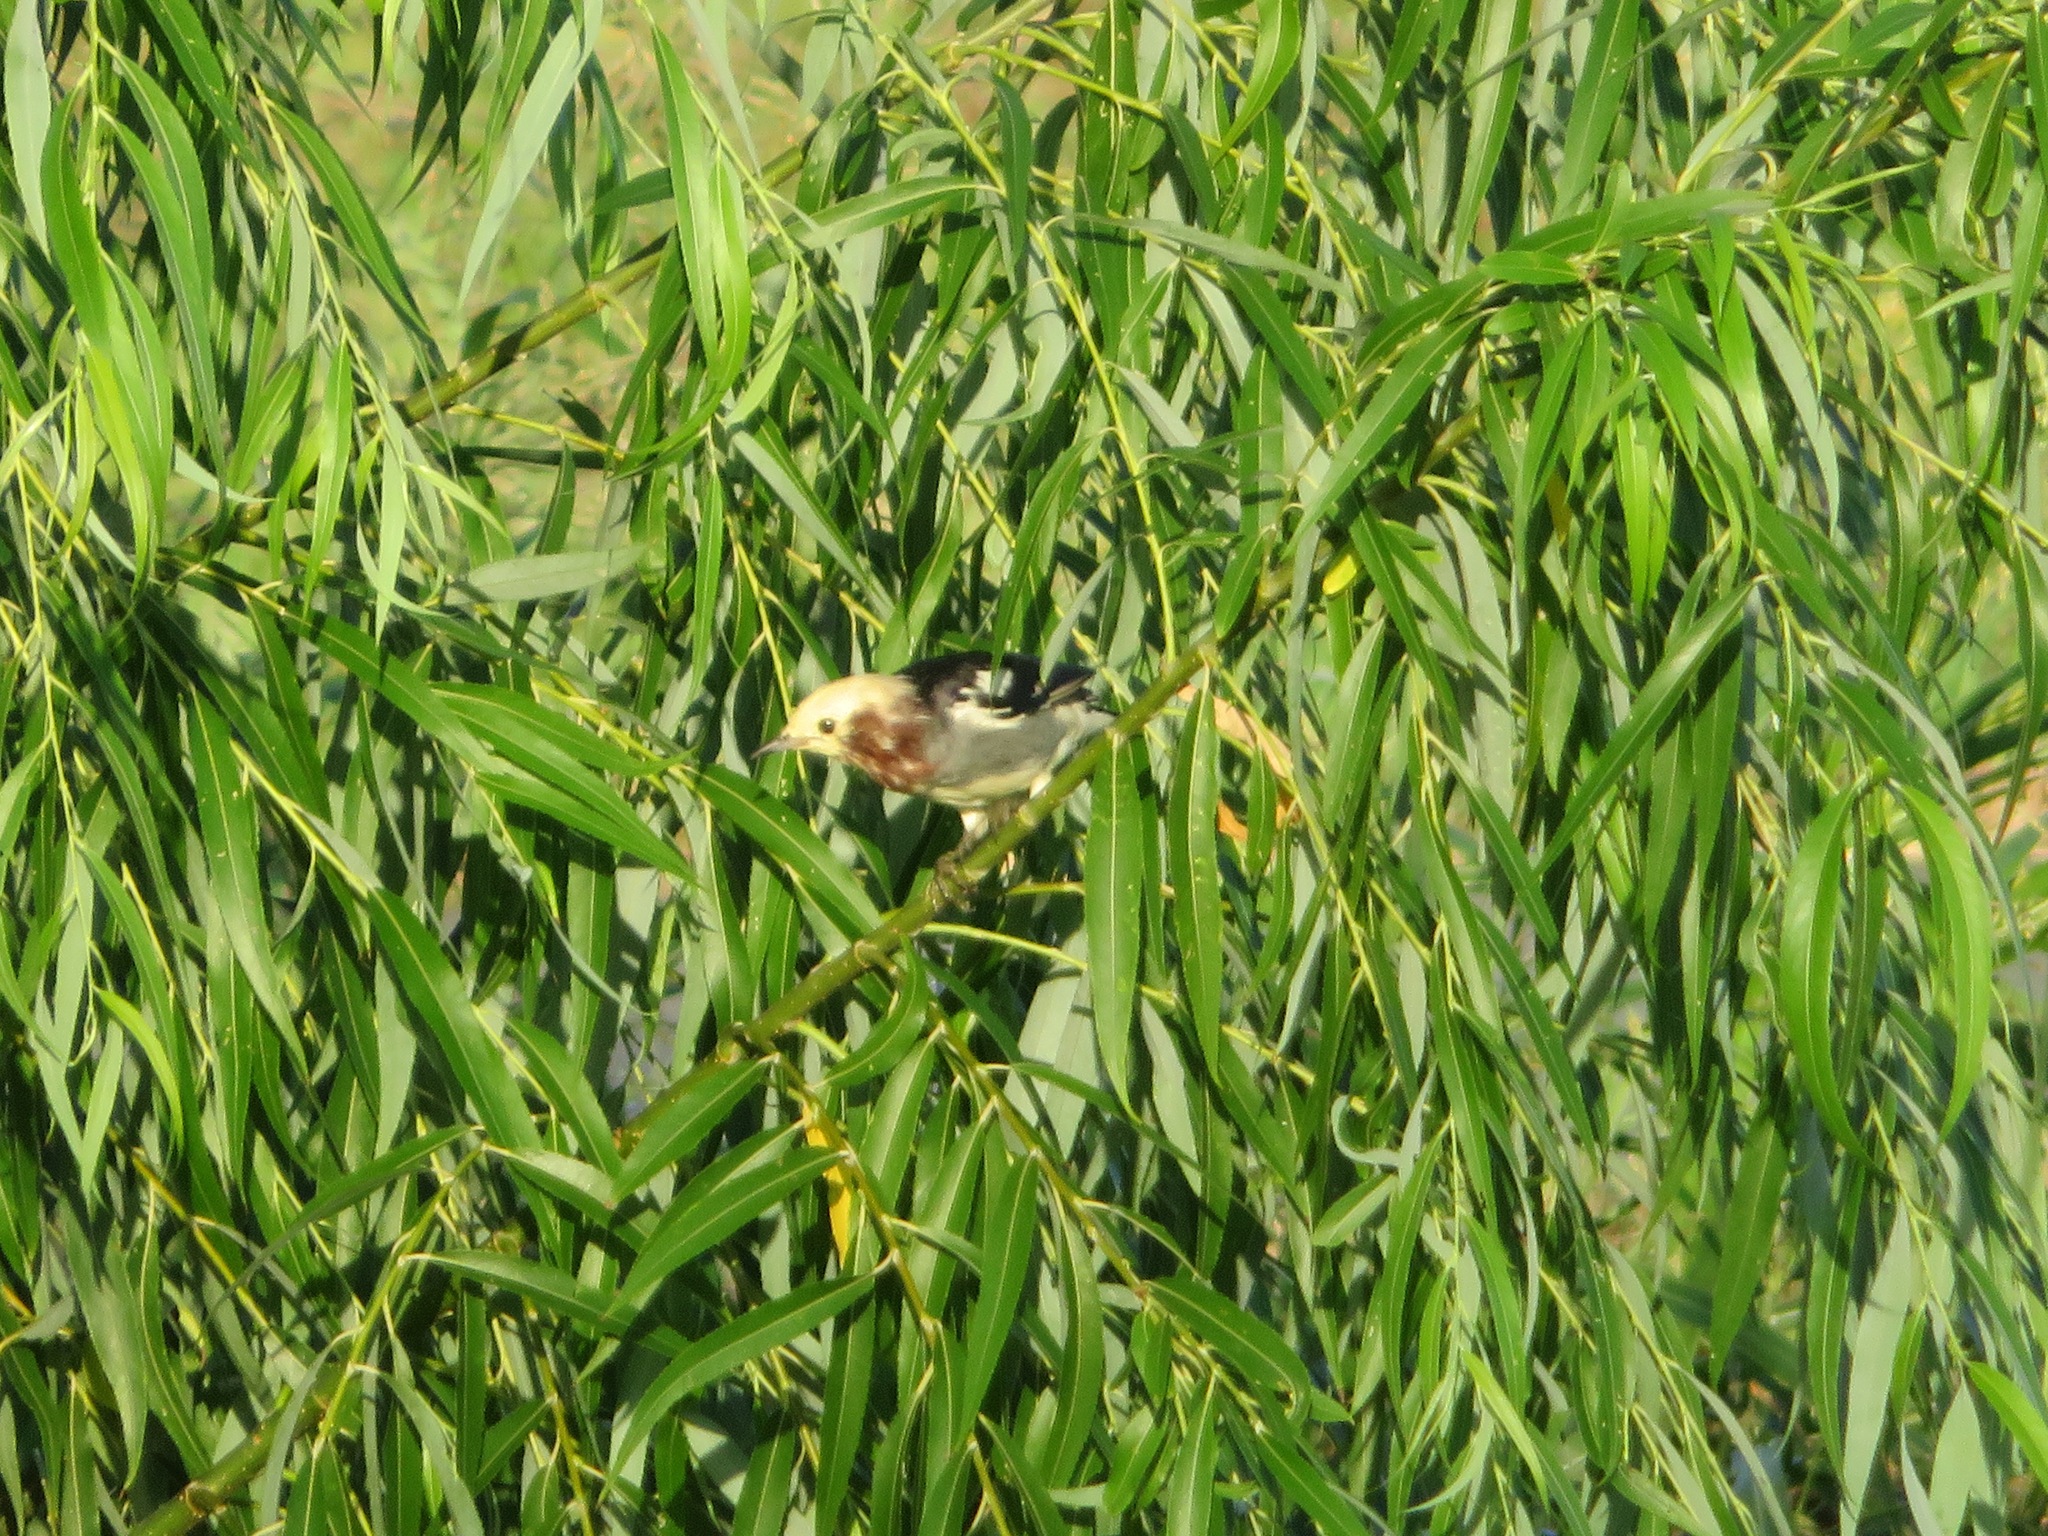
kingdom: Animalia
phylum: Chordata
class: Aves
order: Passeriformes
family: Sturnidae
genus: Agropsar
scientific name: Agropsar philippensis
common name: Chestnut-cheeked starling
